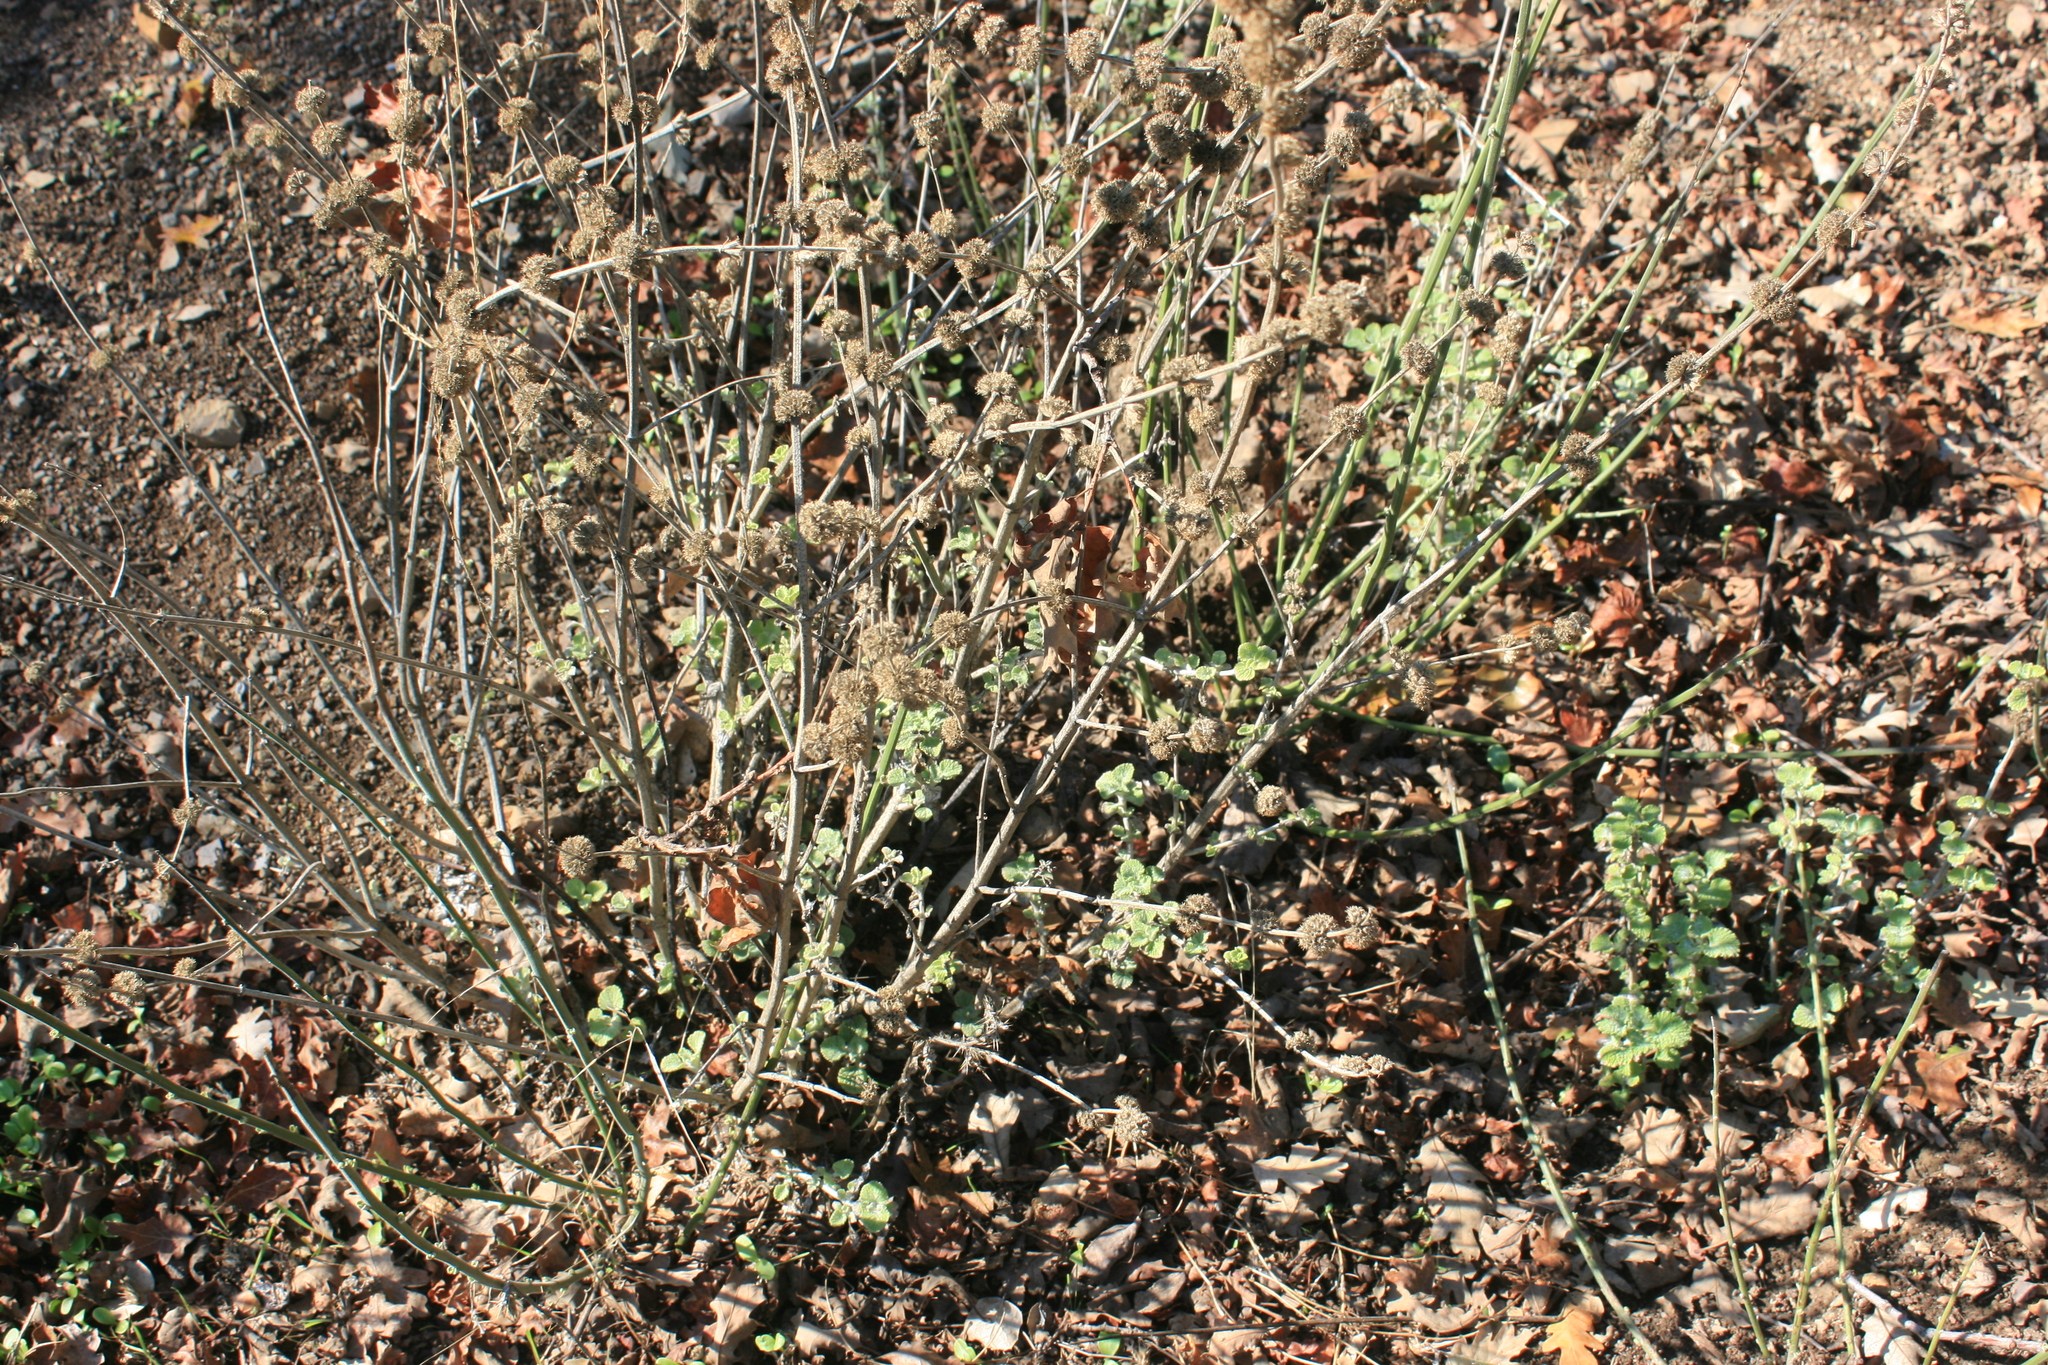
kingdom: Plantae
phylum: Tracheophyta
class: Magnoliopsida
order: Lamiales
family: Lamiaceae
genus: Marrubium
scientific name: Marrubium vulgare
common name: Horehound
